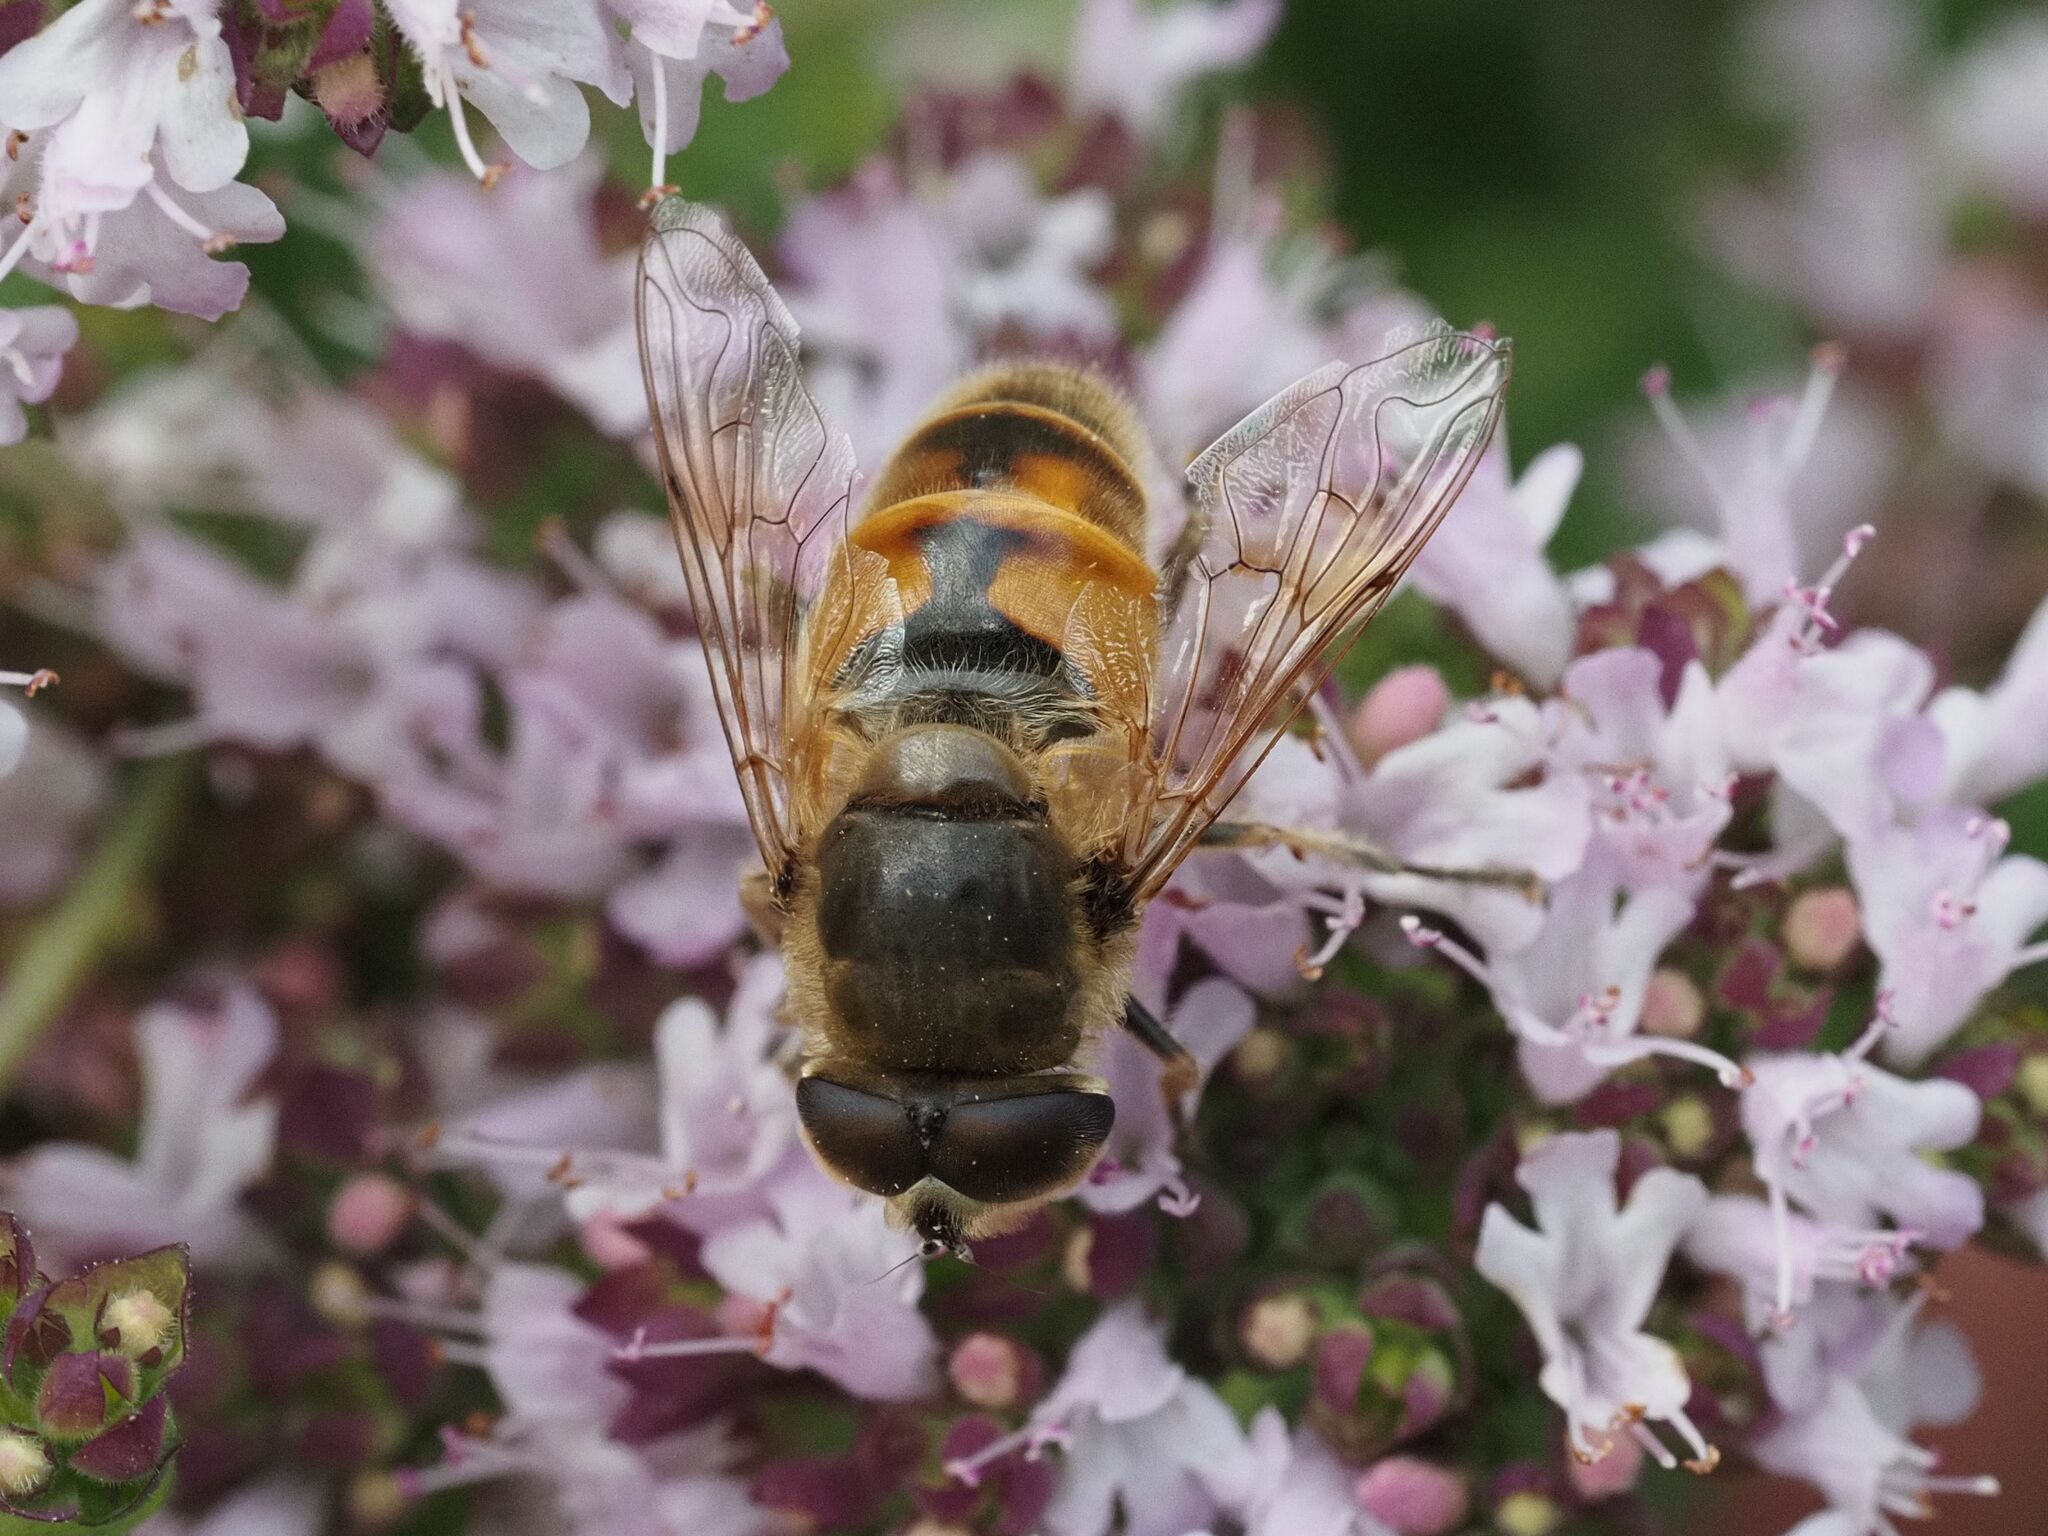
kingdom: Animalia
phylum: Arthropoda
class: Insecta
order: Diptera
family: Syrphidae
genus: Eristalis
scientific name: Eristalis tenax
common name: Drone fly
